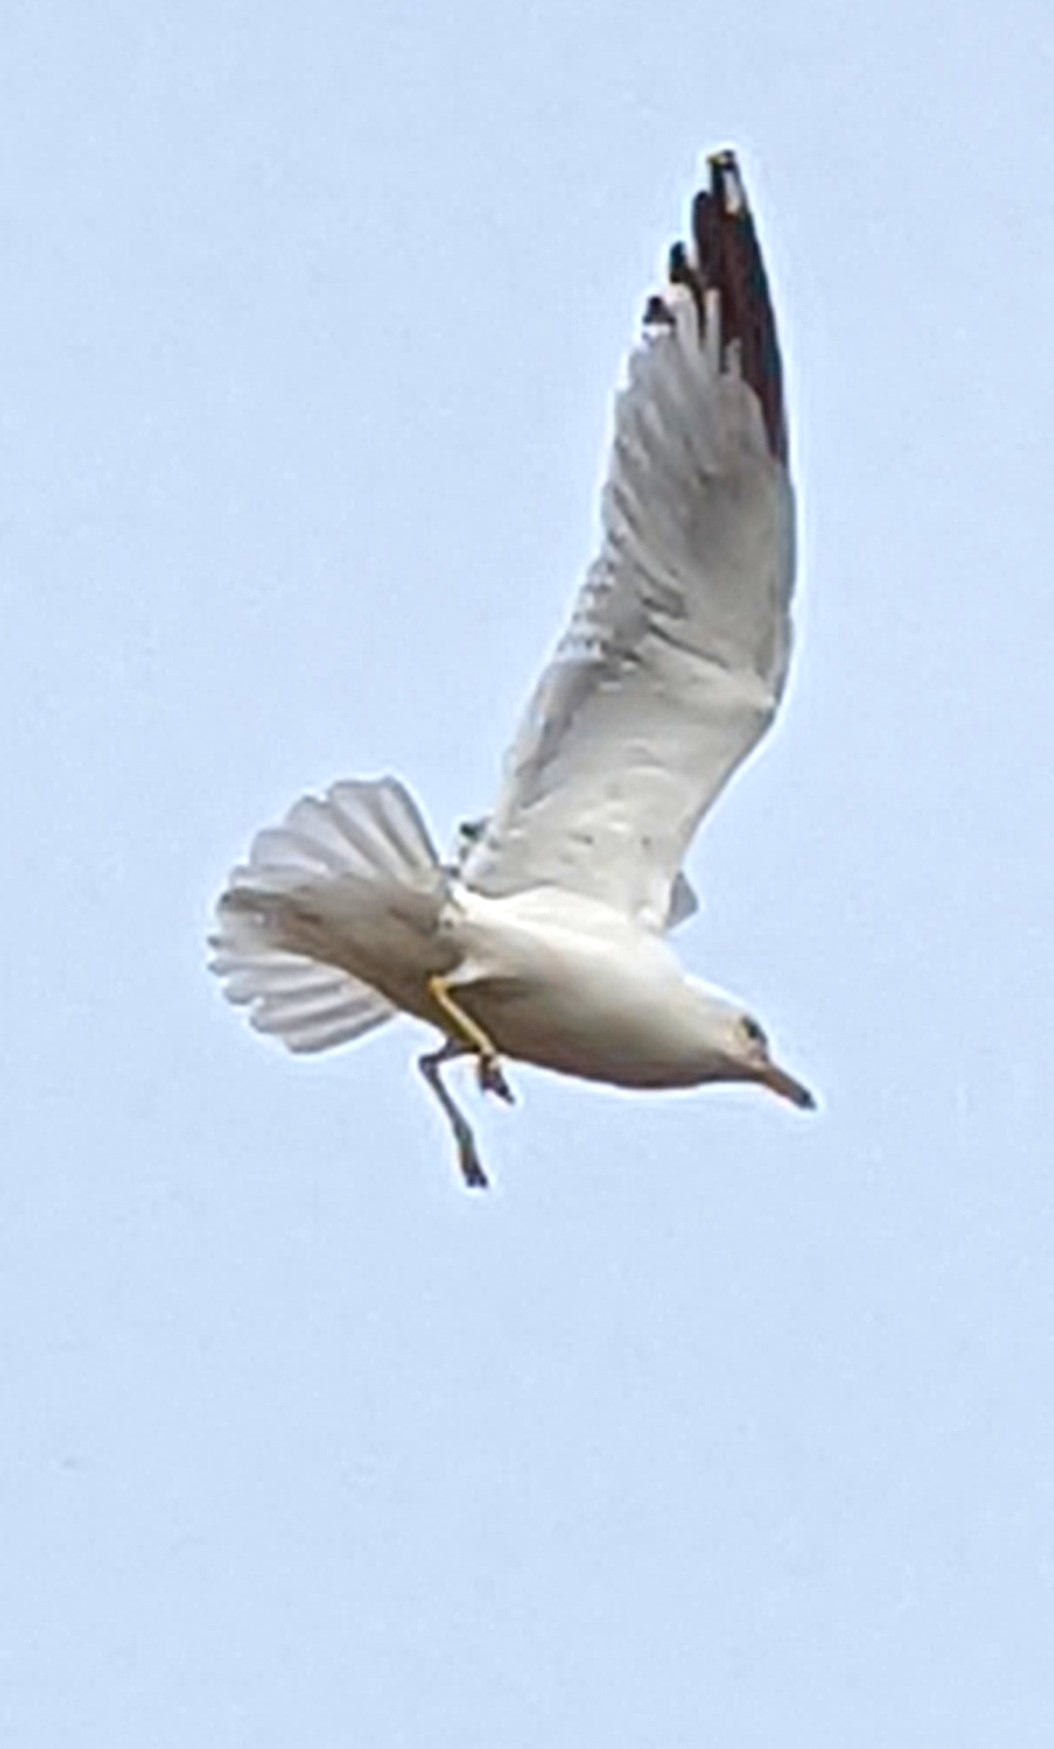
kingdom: Animalia
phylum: Chordata
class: Aves
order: Charadriiformes
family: Laridae
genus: Larus
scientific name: Larus delawarensis
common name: Ring-billed gull
